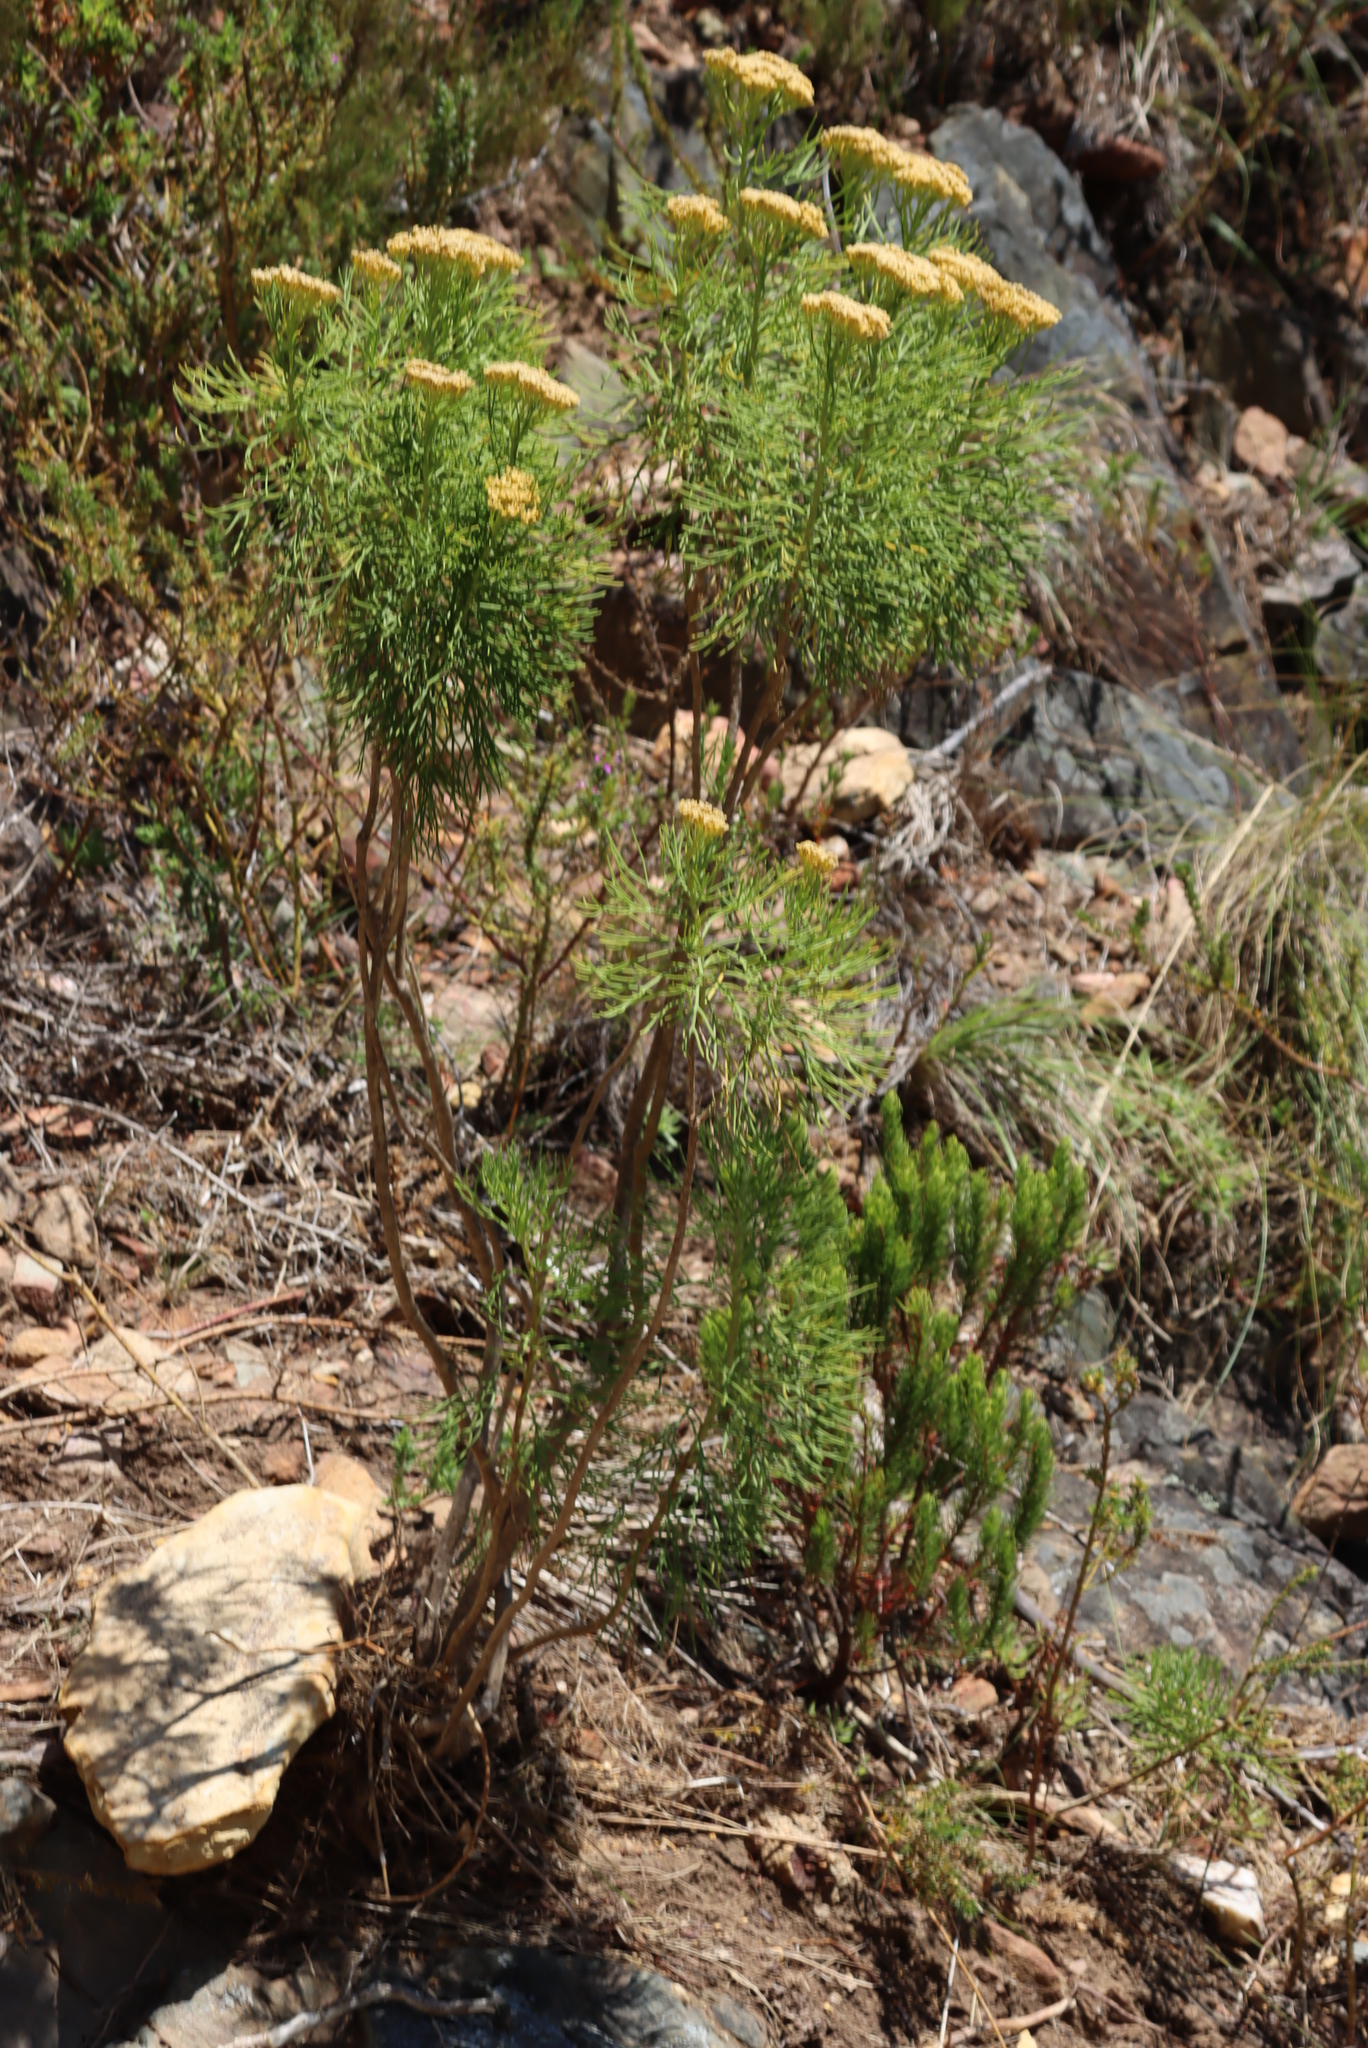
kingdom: Plantae
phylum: Tracheophyta
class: Magnoliopsida
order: Asterales
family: Asteraceae
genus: Hymenolepis
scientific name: Hymenolepis crithmifolia
